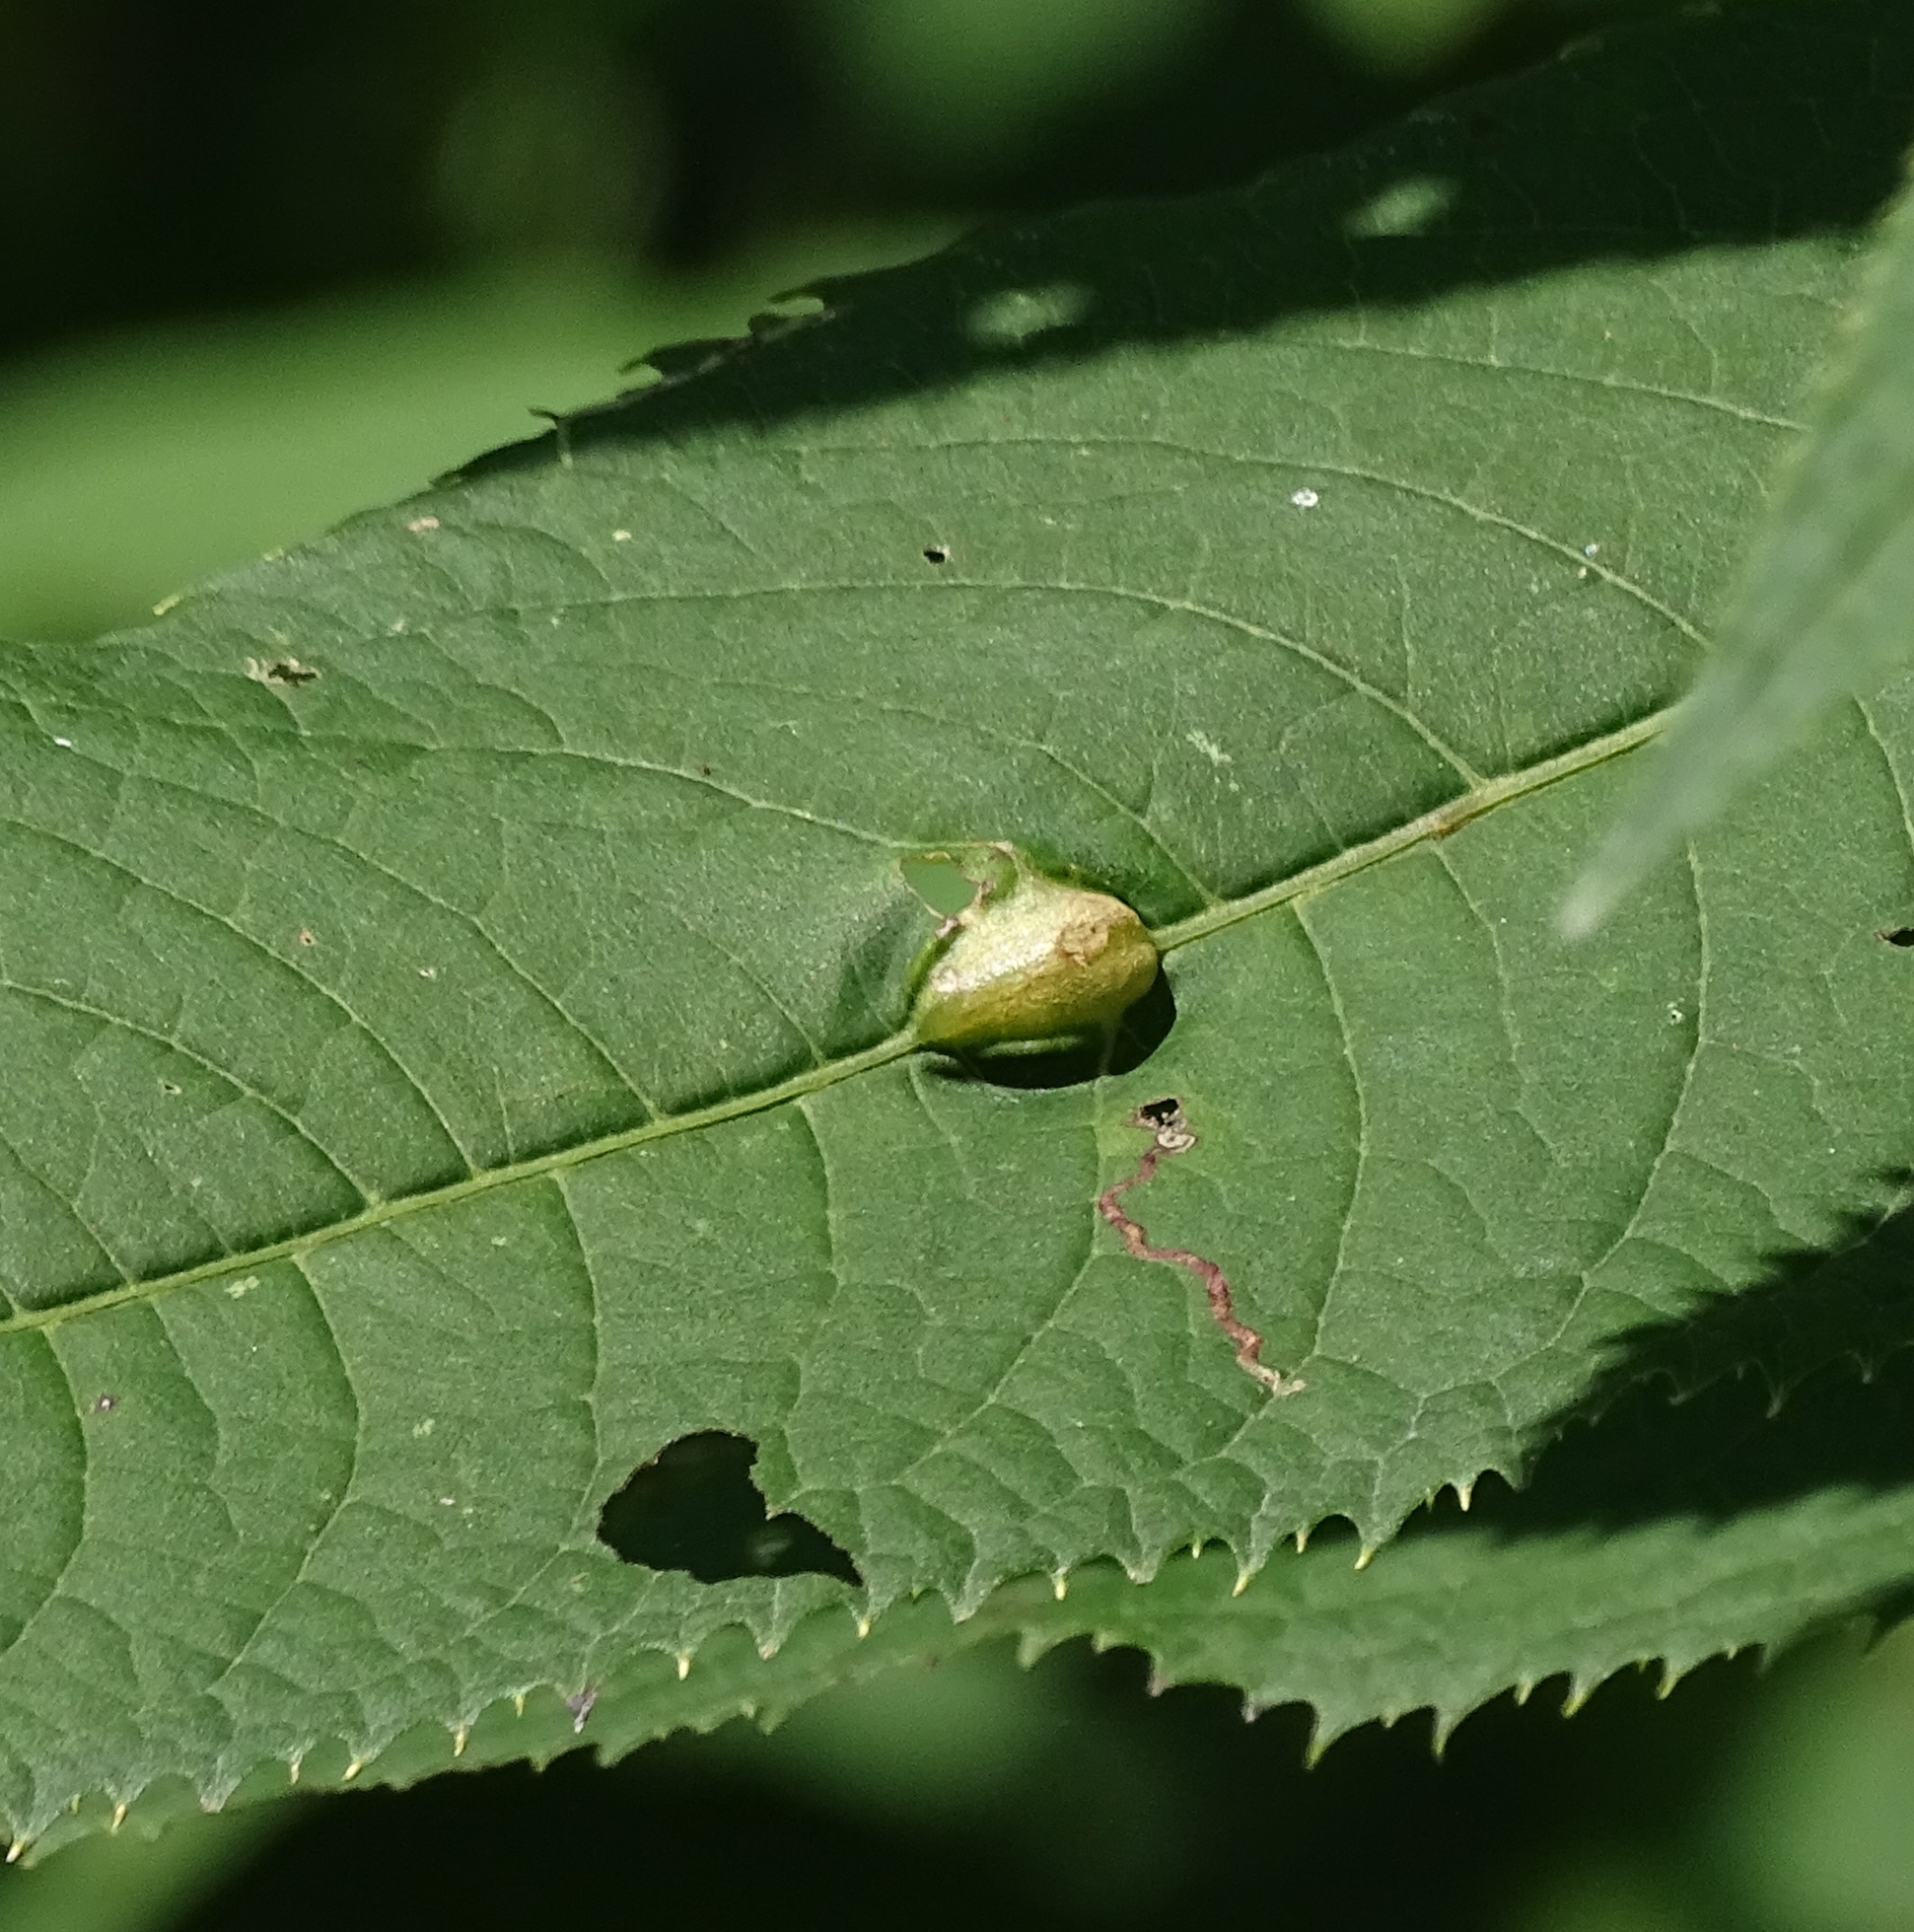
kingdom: Animalia
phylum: Arthropoda
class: Insecta
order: Diptera
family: Cecidomyiidae
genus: Neolasioptera
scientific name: Neolasioptera vernoniae
